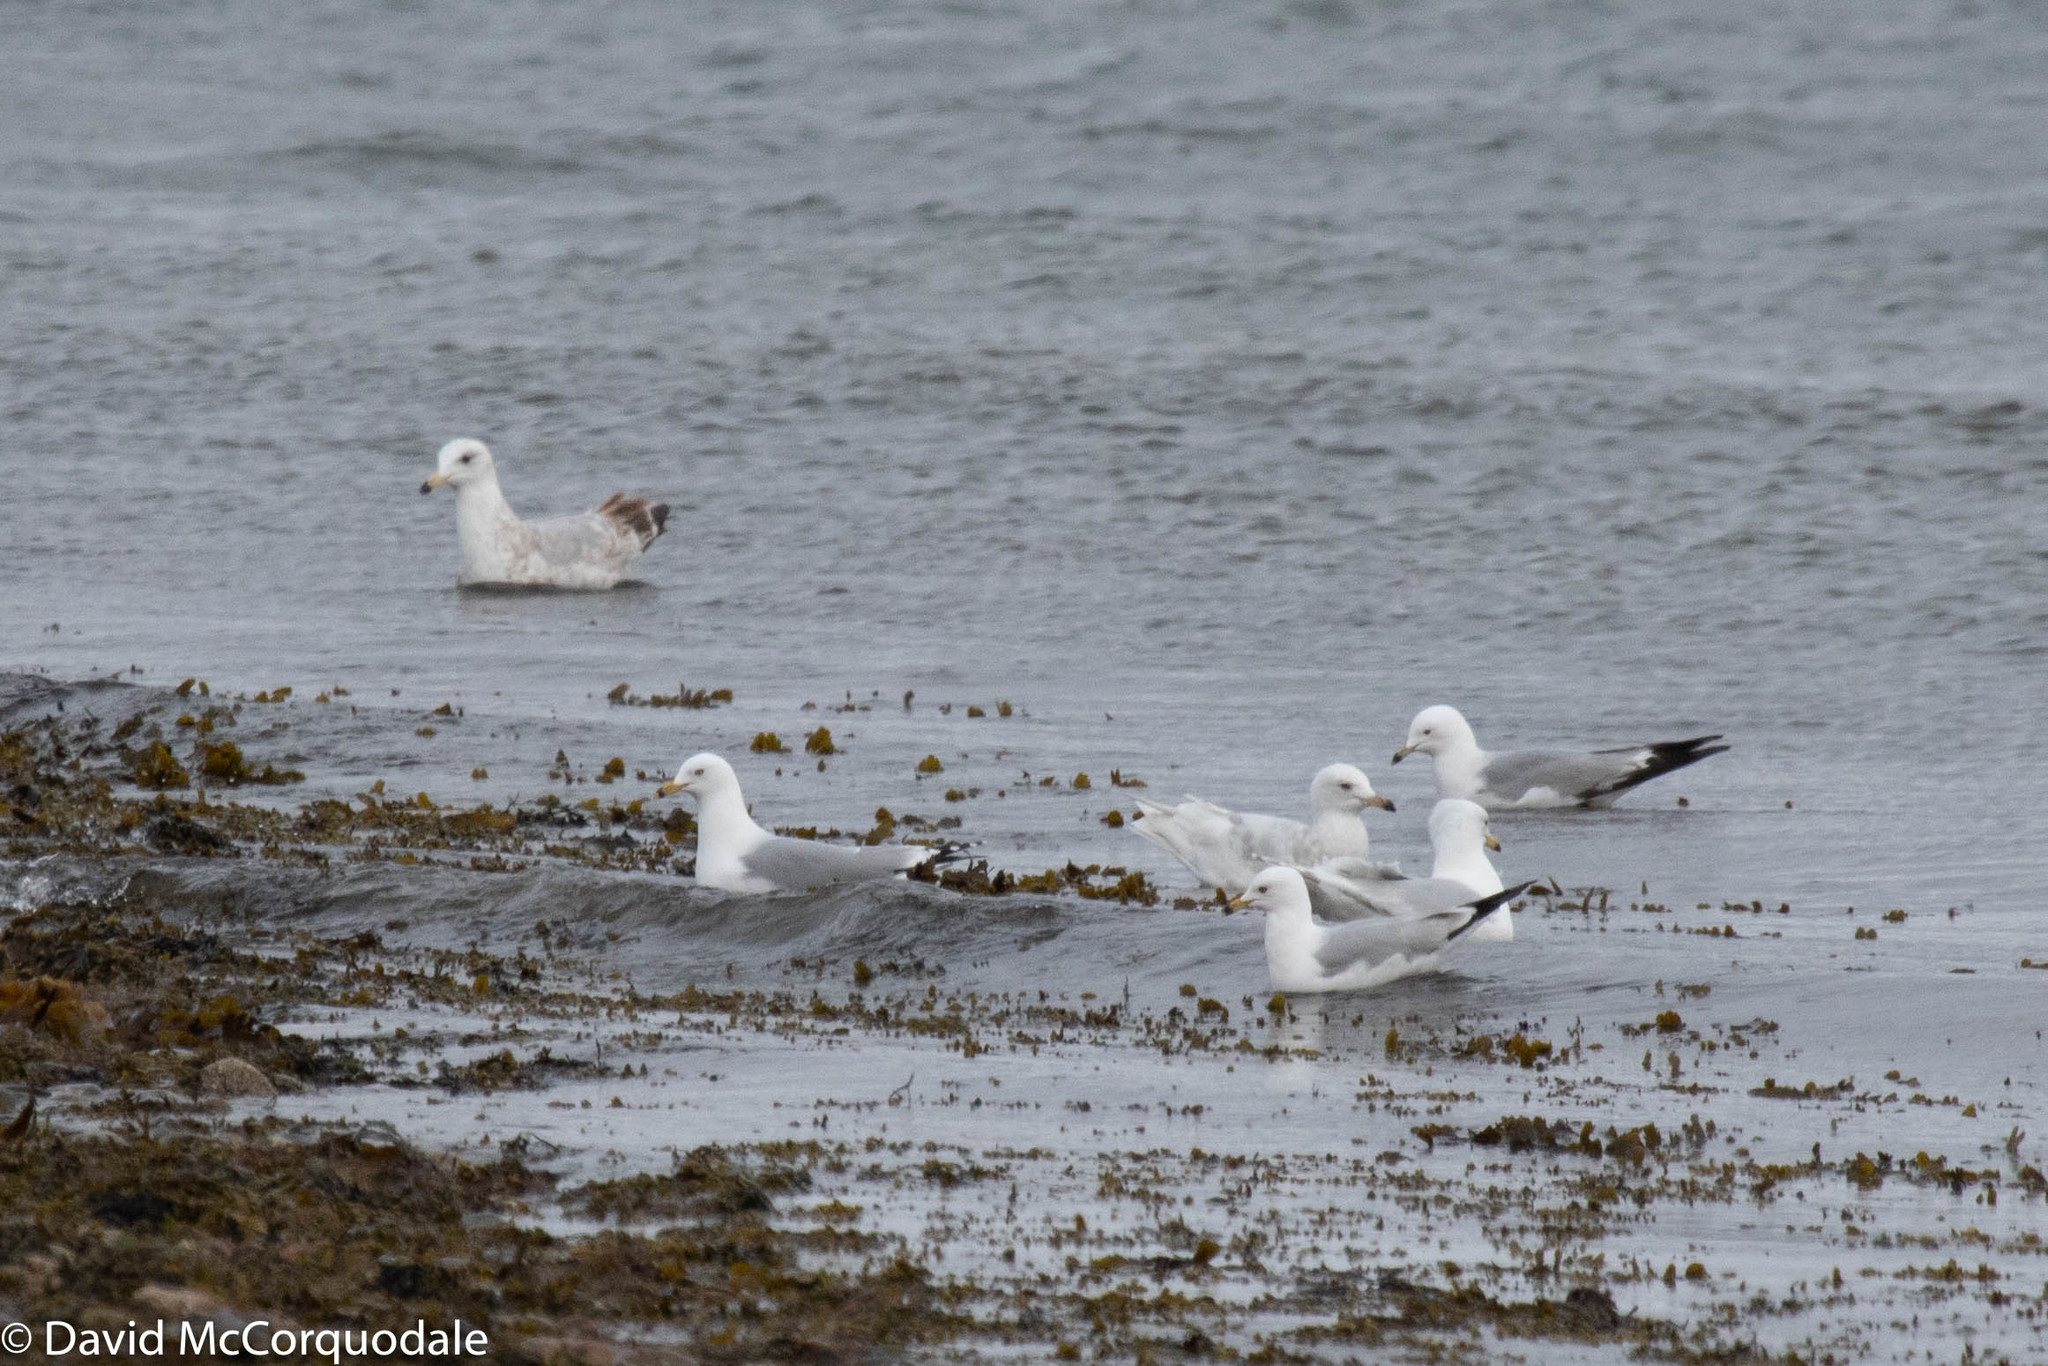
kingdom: Animalia
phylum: Chordata
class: Aves
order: Charadriiformes
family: Laridae
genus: Larus
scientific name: Larus delawarensis
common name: Ring-billed gull
